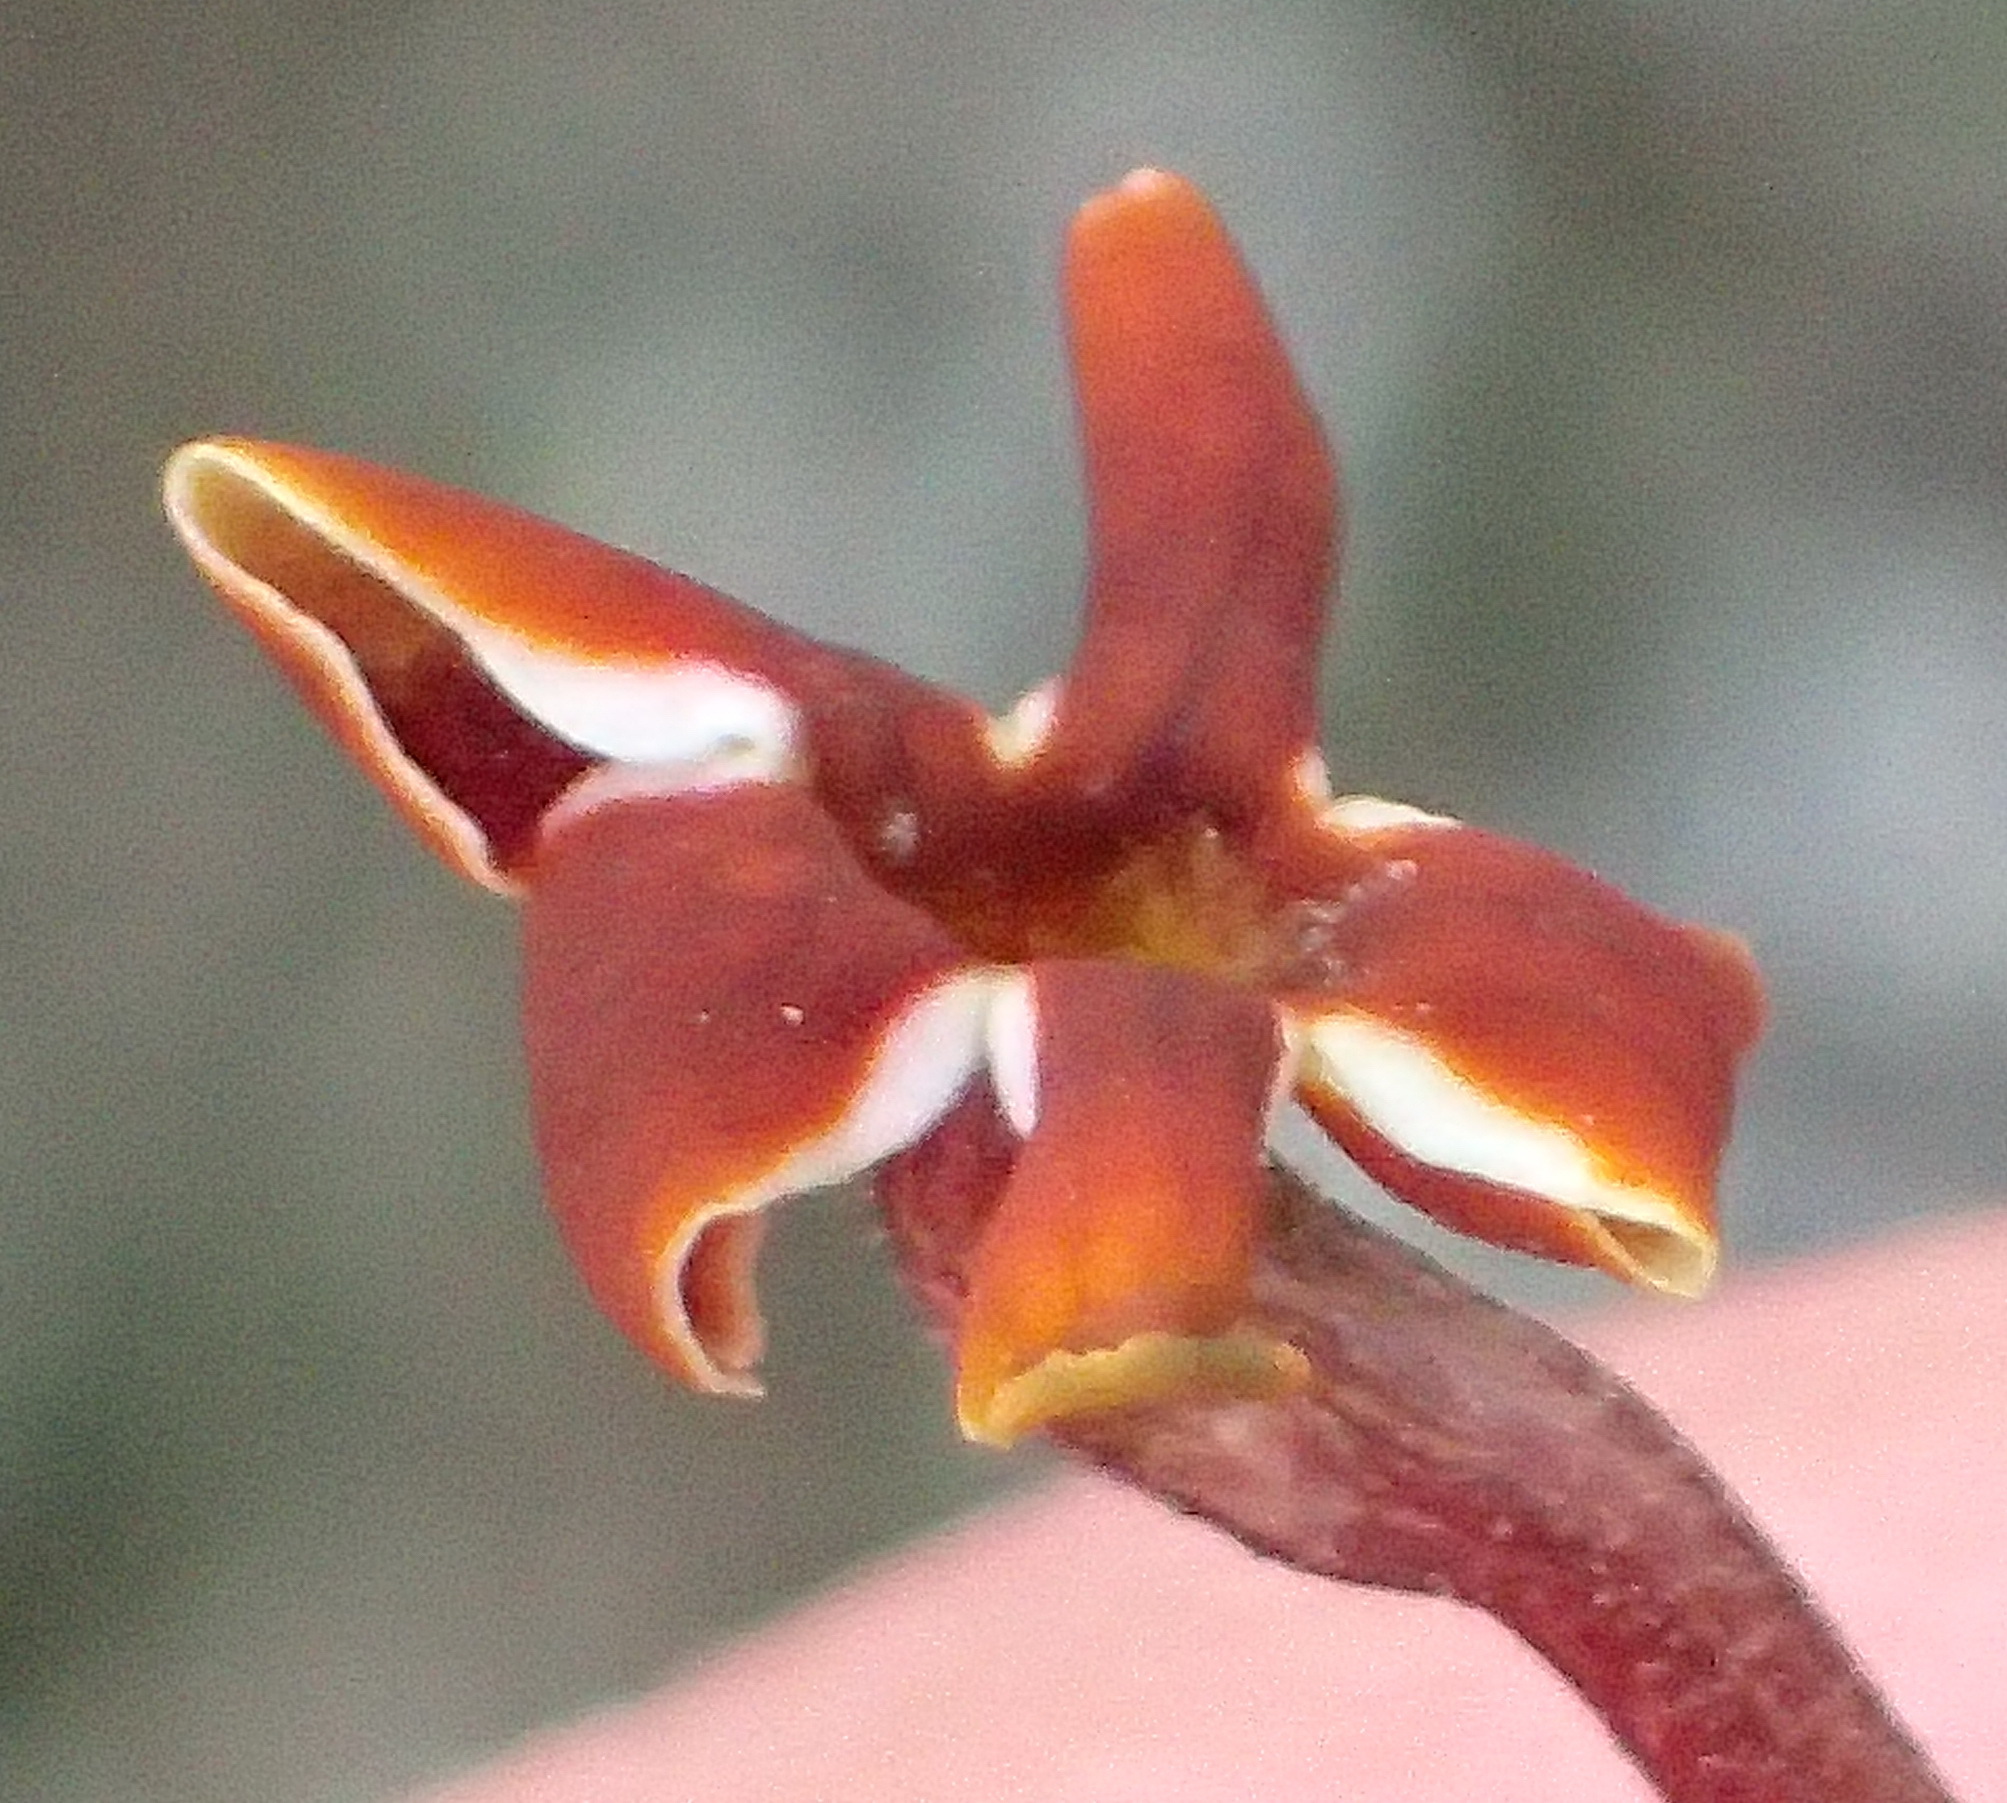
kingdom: Plantae
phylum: Tracheophyta
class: Magnoliopsida
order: Lamiales
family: Scrophulariaceae
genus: Jamesbrittenia
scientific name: Jamesbrittenia atropurpurea
